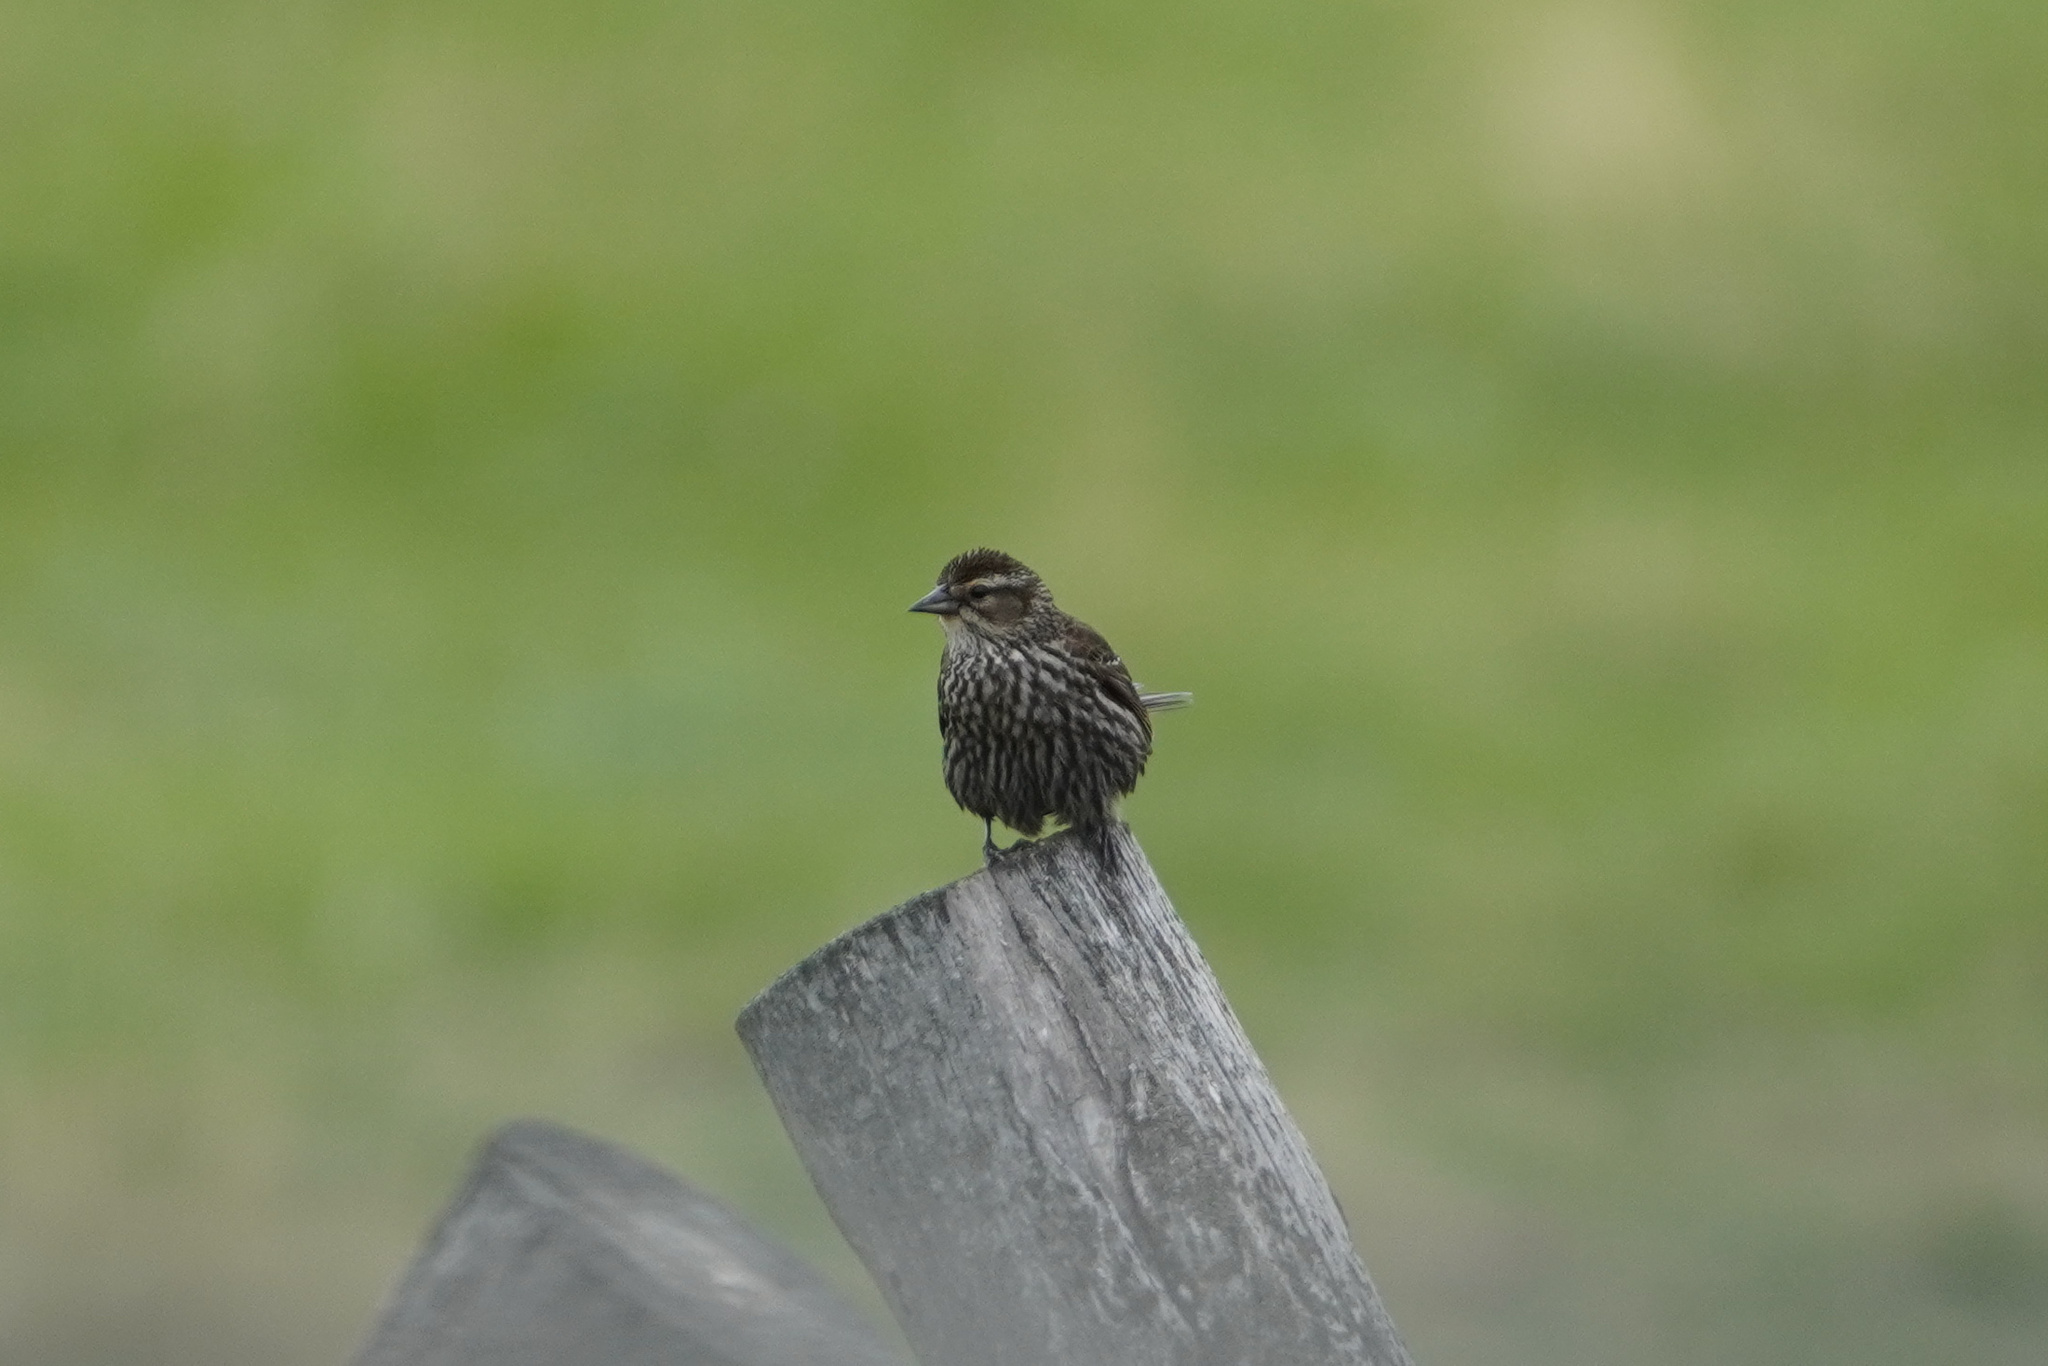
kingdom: Animalia
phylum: Chordata
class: Aves
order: Passeriformes
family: Icteridae
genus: Agelaius
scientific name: Agelaius phoeniceus
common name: Red-winged blackbird
